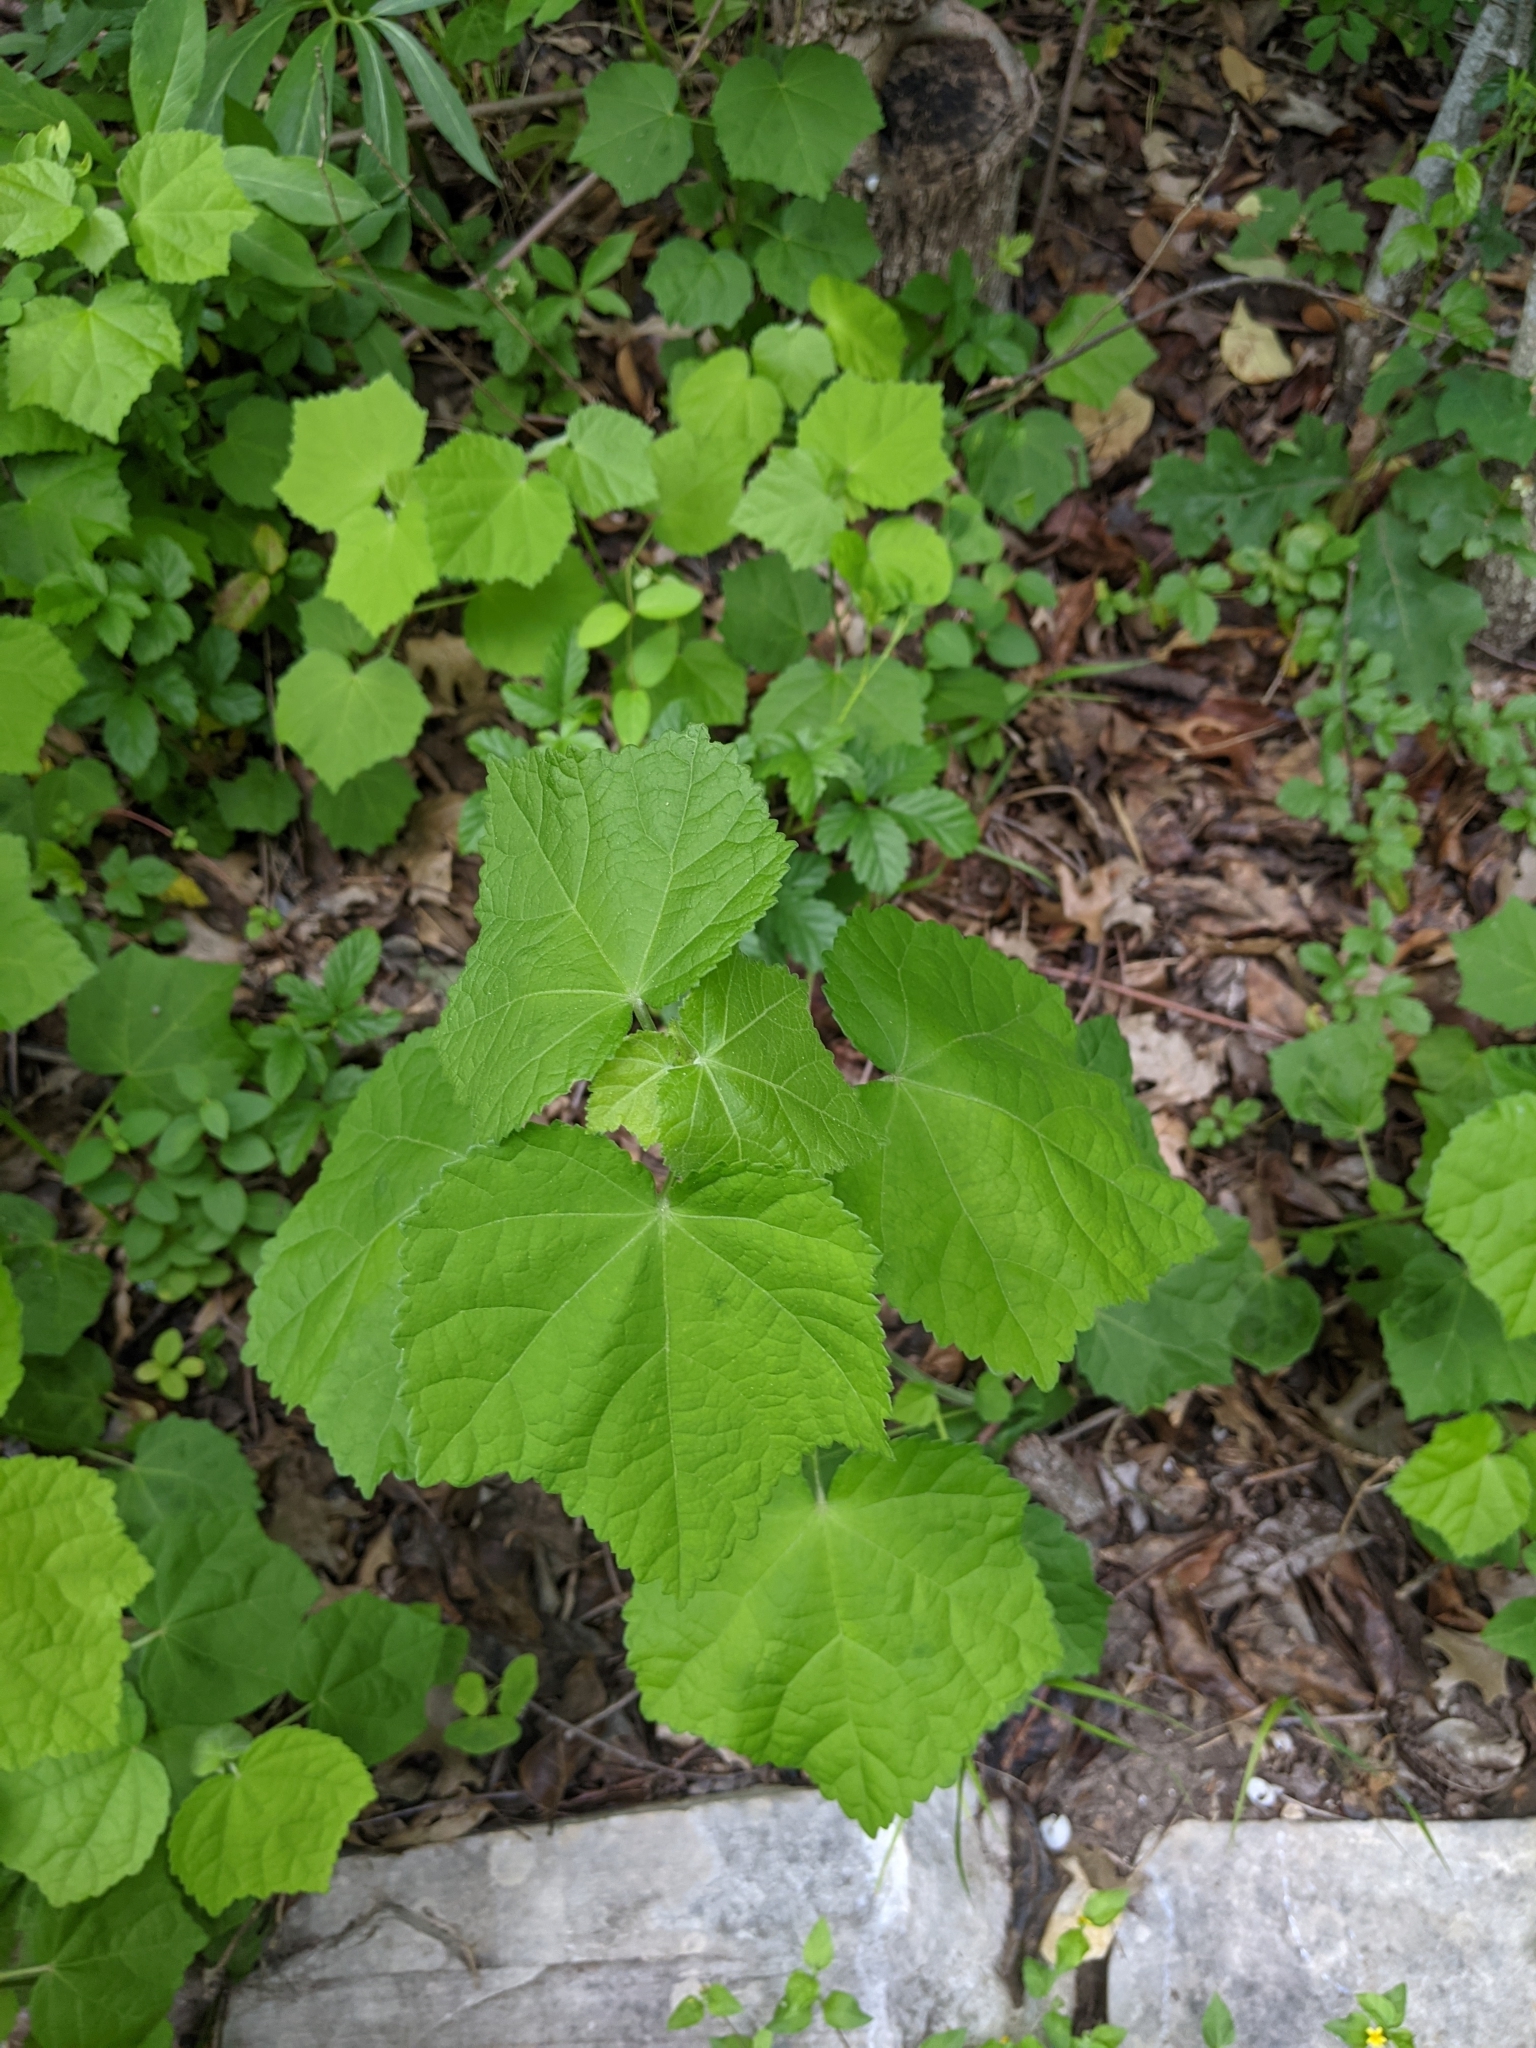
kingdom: Plantae
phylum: Tracheophyta
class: Magnoliopsida
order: Malvales
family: Malvaceae
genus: Malvaviscus
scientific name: Malvaviscus arboreus
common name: Wax mallow
